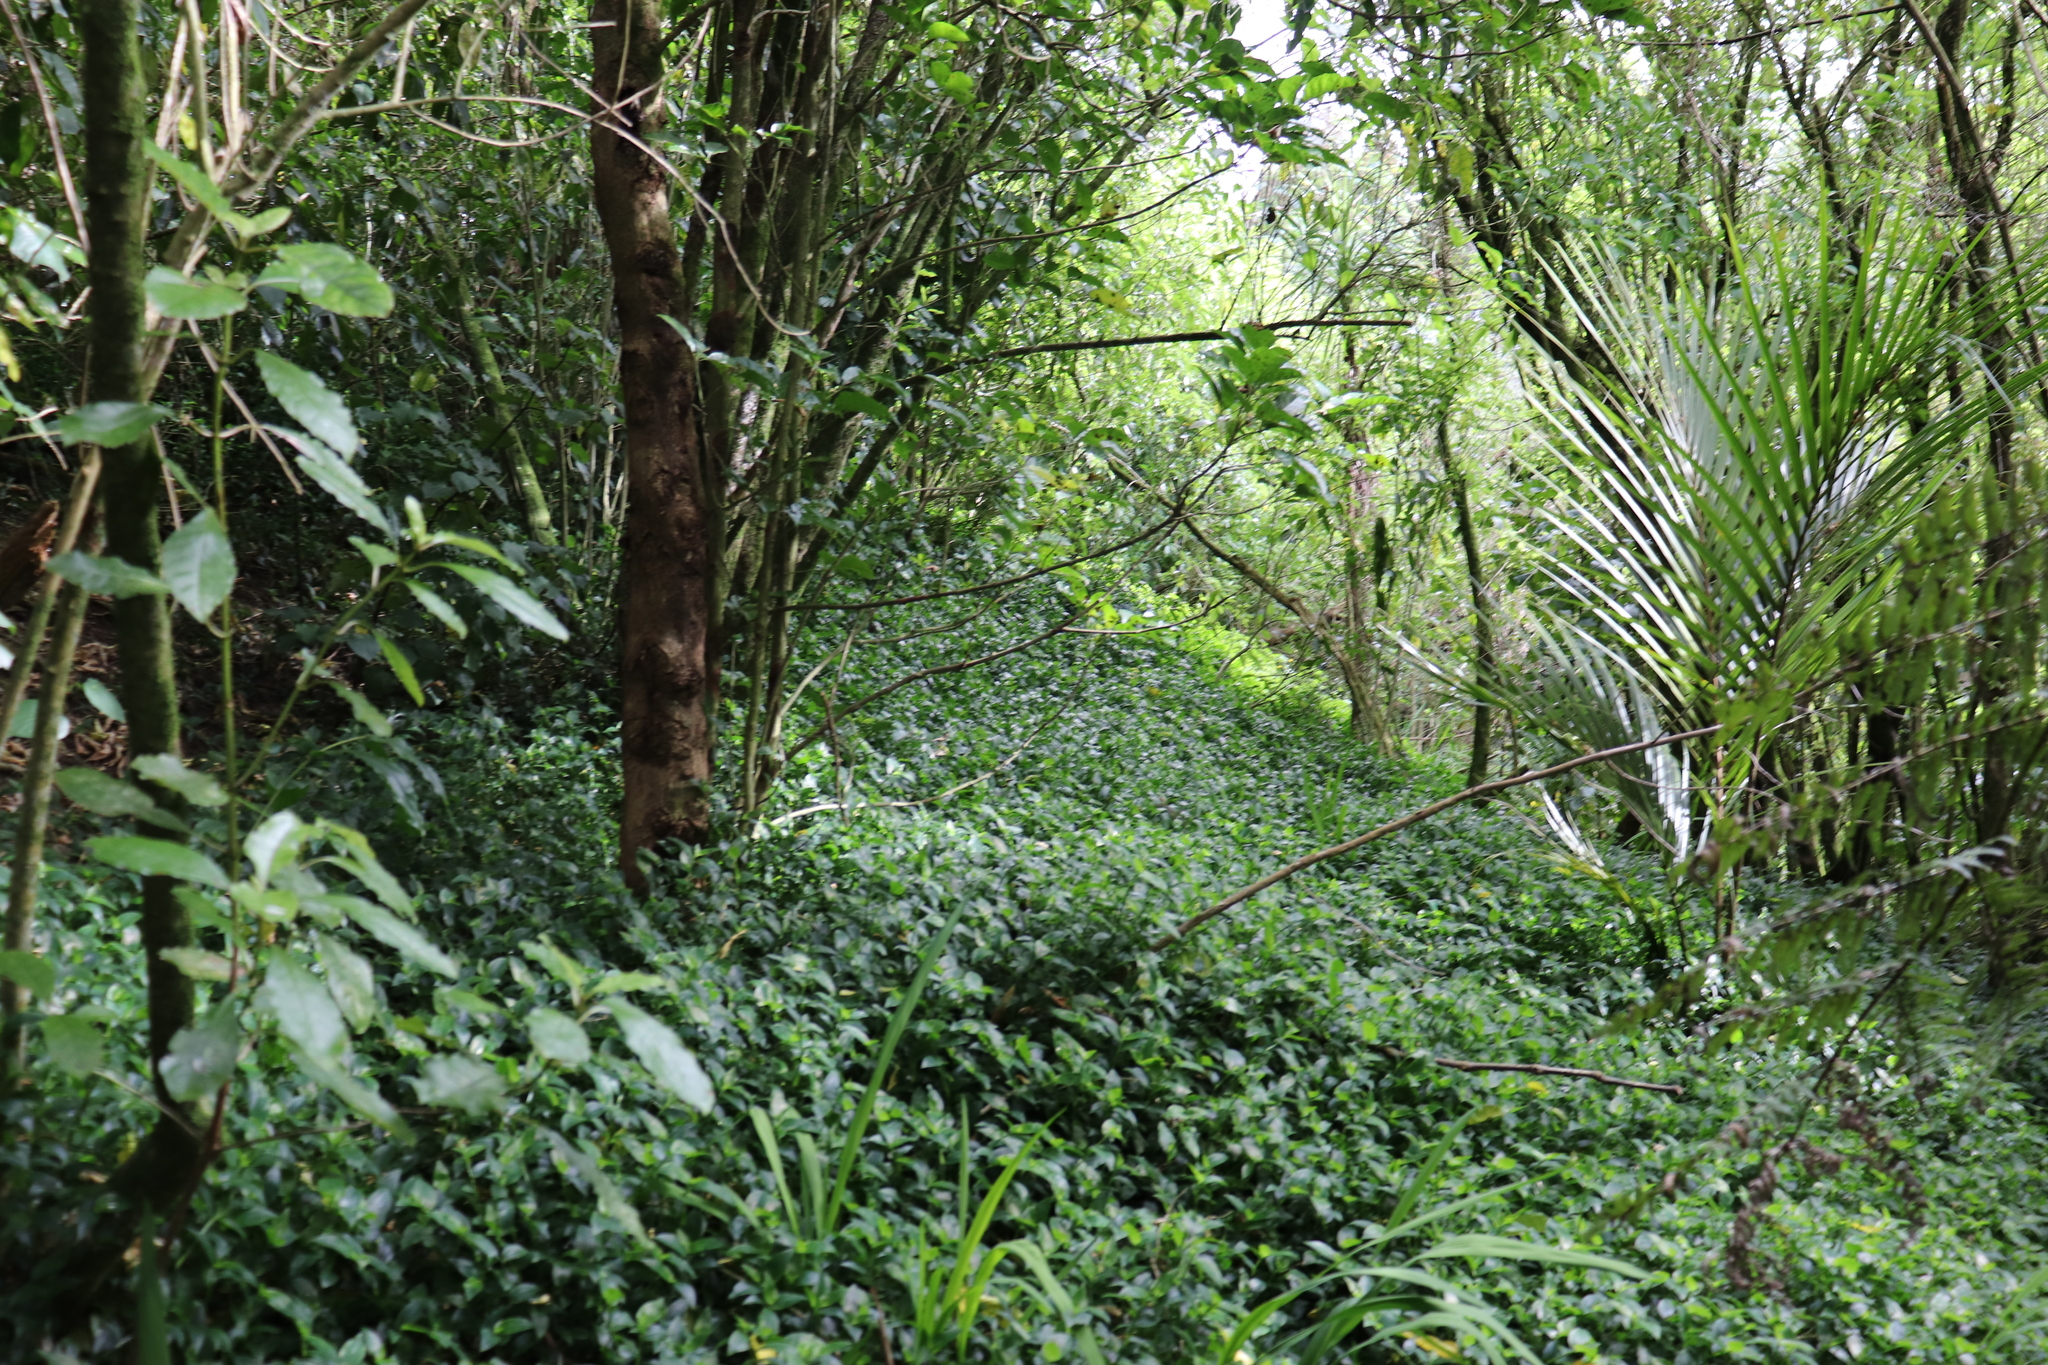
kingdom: Plantae
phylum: Tracheophyta
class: Liliopsida
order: Commelinales
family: Commelinaceae
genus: Tradescantia
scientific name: Tradescantia fluminensis
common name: Wandering-jew
